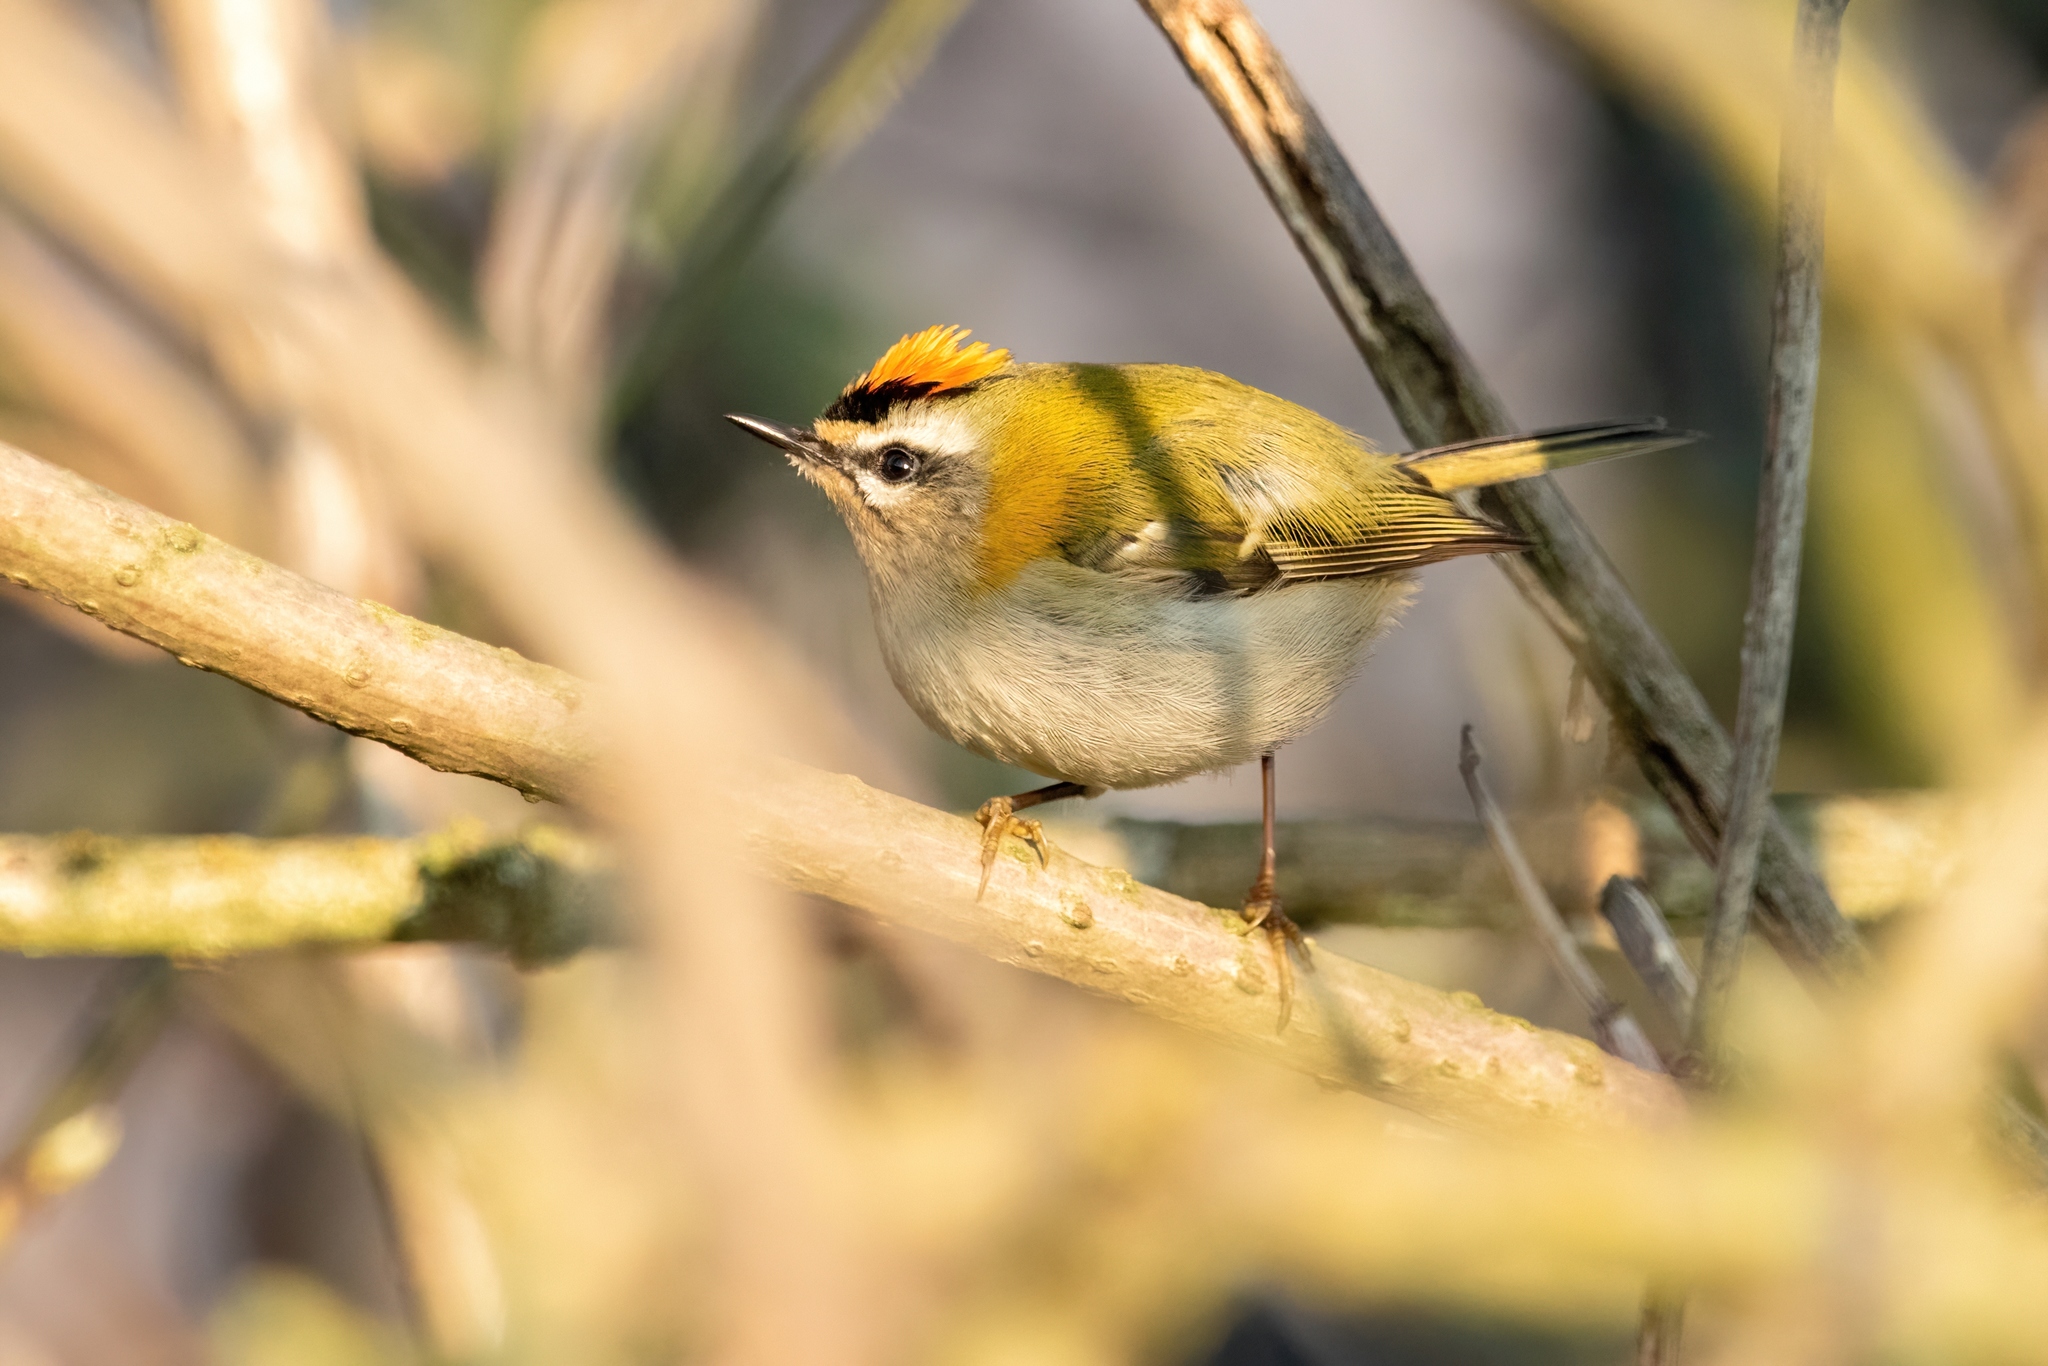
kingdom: Animalia
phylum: Chordata
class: Aves
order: Passeriformes
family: Regulidae
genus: Regulus
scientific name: Regulus ignicapilla
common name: Firecrest
